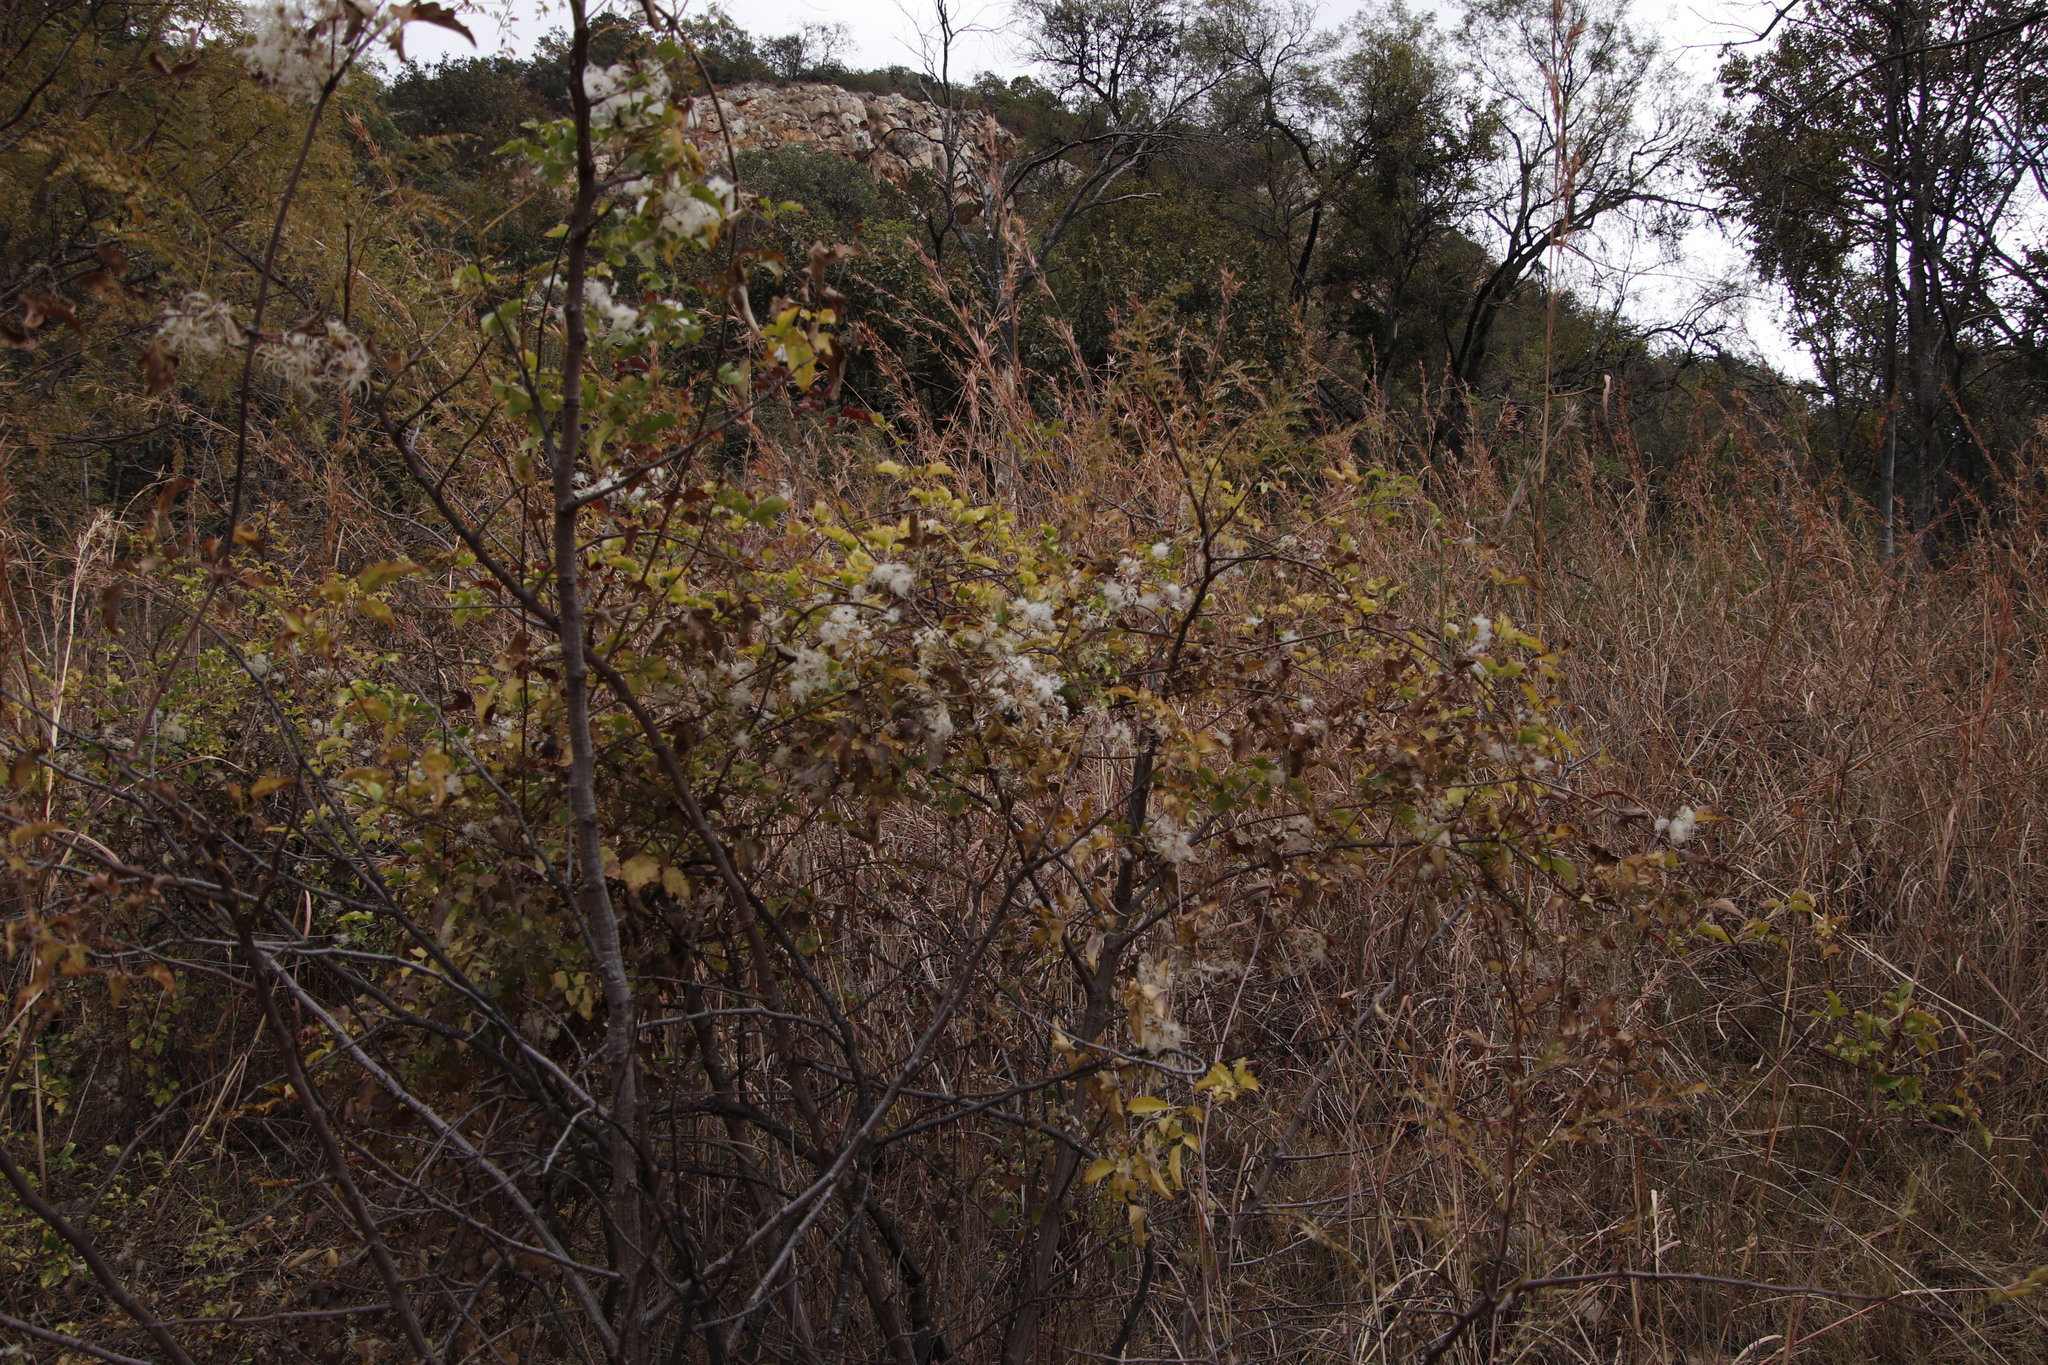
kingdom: Plantae
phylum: Tracheophyta
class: Magnoliopsida
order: Ranunculales
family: Ranunculaceae
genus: Clematis
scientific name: Clematis brachiata
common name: Traveler's-joy
